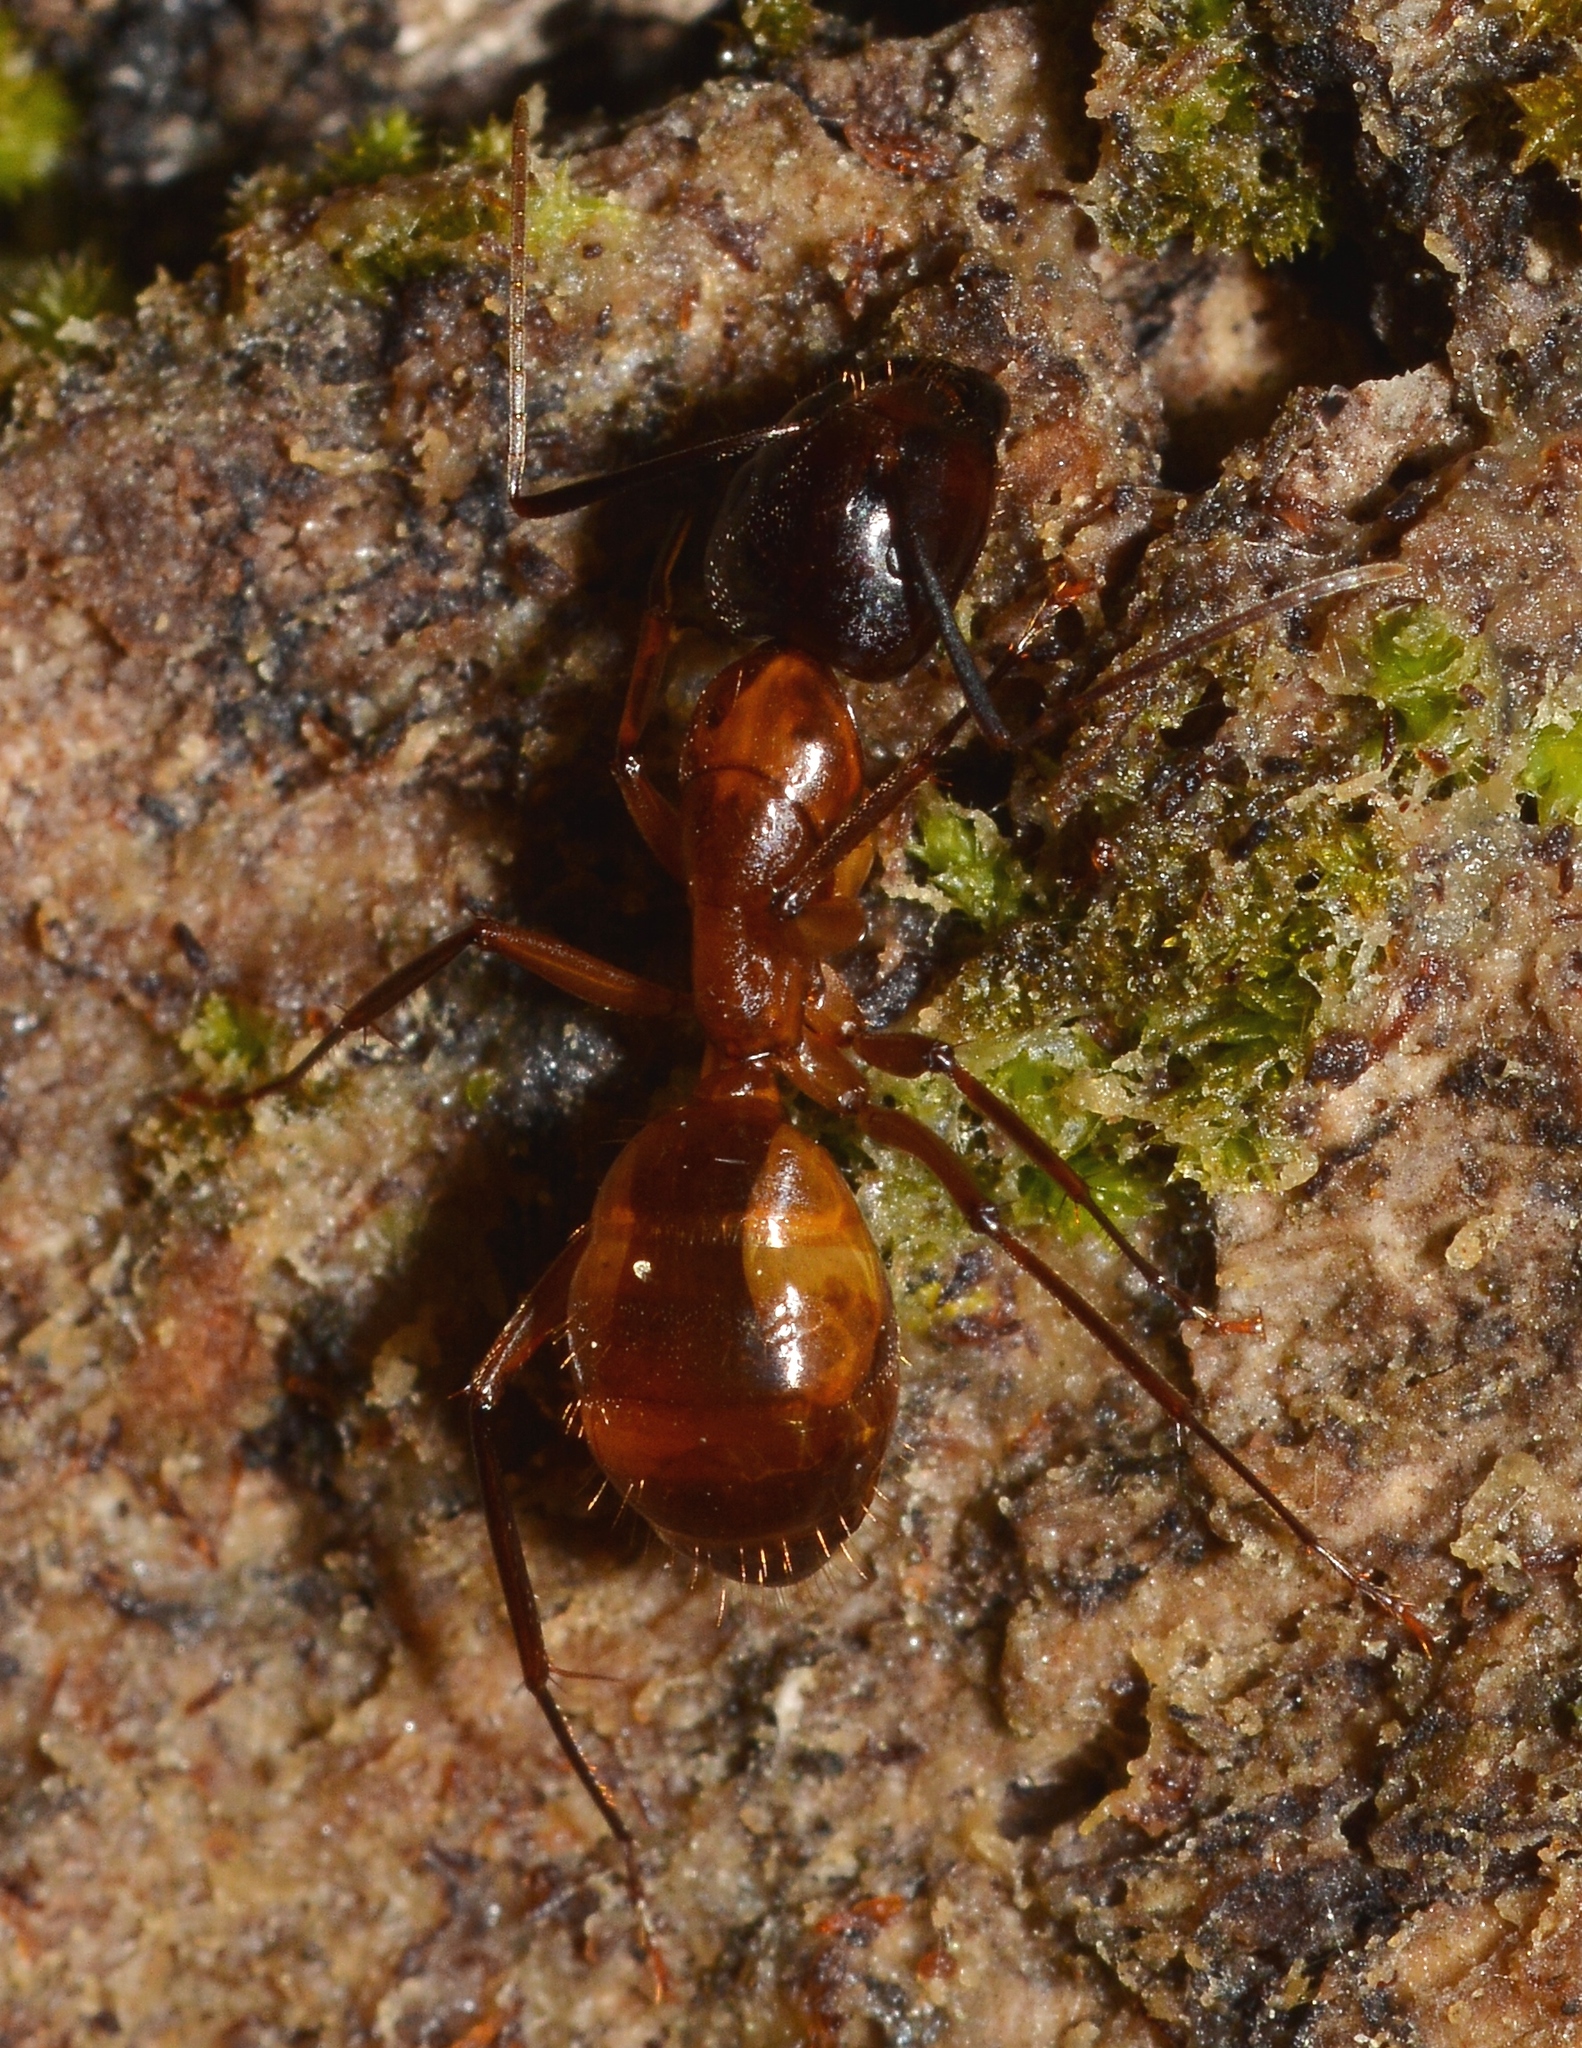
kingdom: Animalia
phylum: Arthropoda
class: Insecta
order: Hymenoptera
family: Formicidae
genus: Camponotus
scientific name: Camponotus americanus
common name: American carpenter ant
